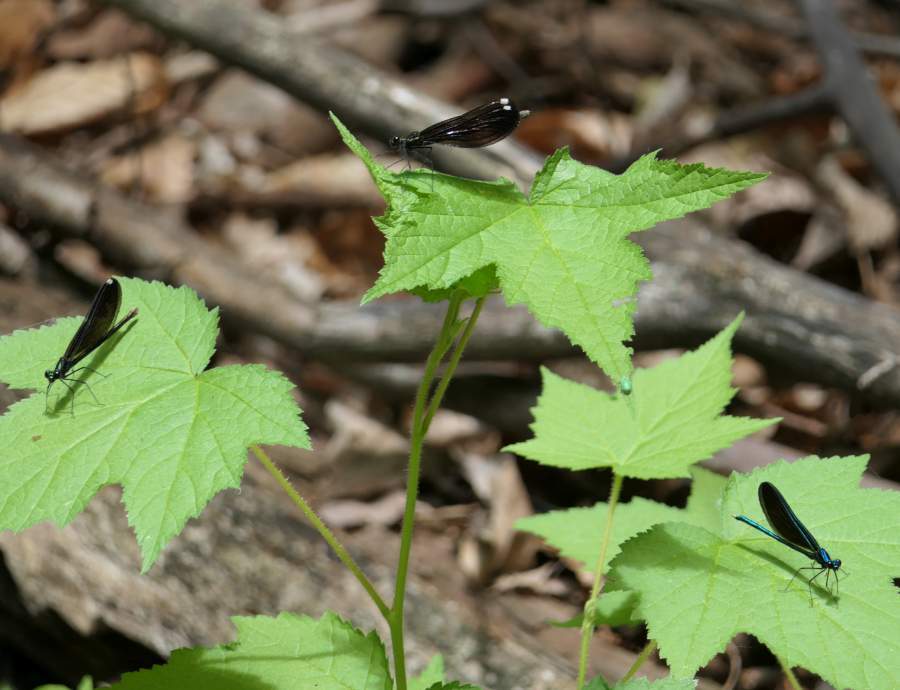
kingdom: Animalia
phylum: Arthropoda
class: Insecta
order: Odonata
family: Calopterygidae
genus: Calopteryx
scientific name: Calopteryx maculata
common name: Ebony jewelwing
